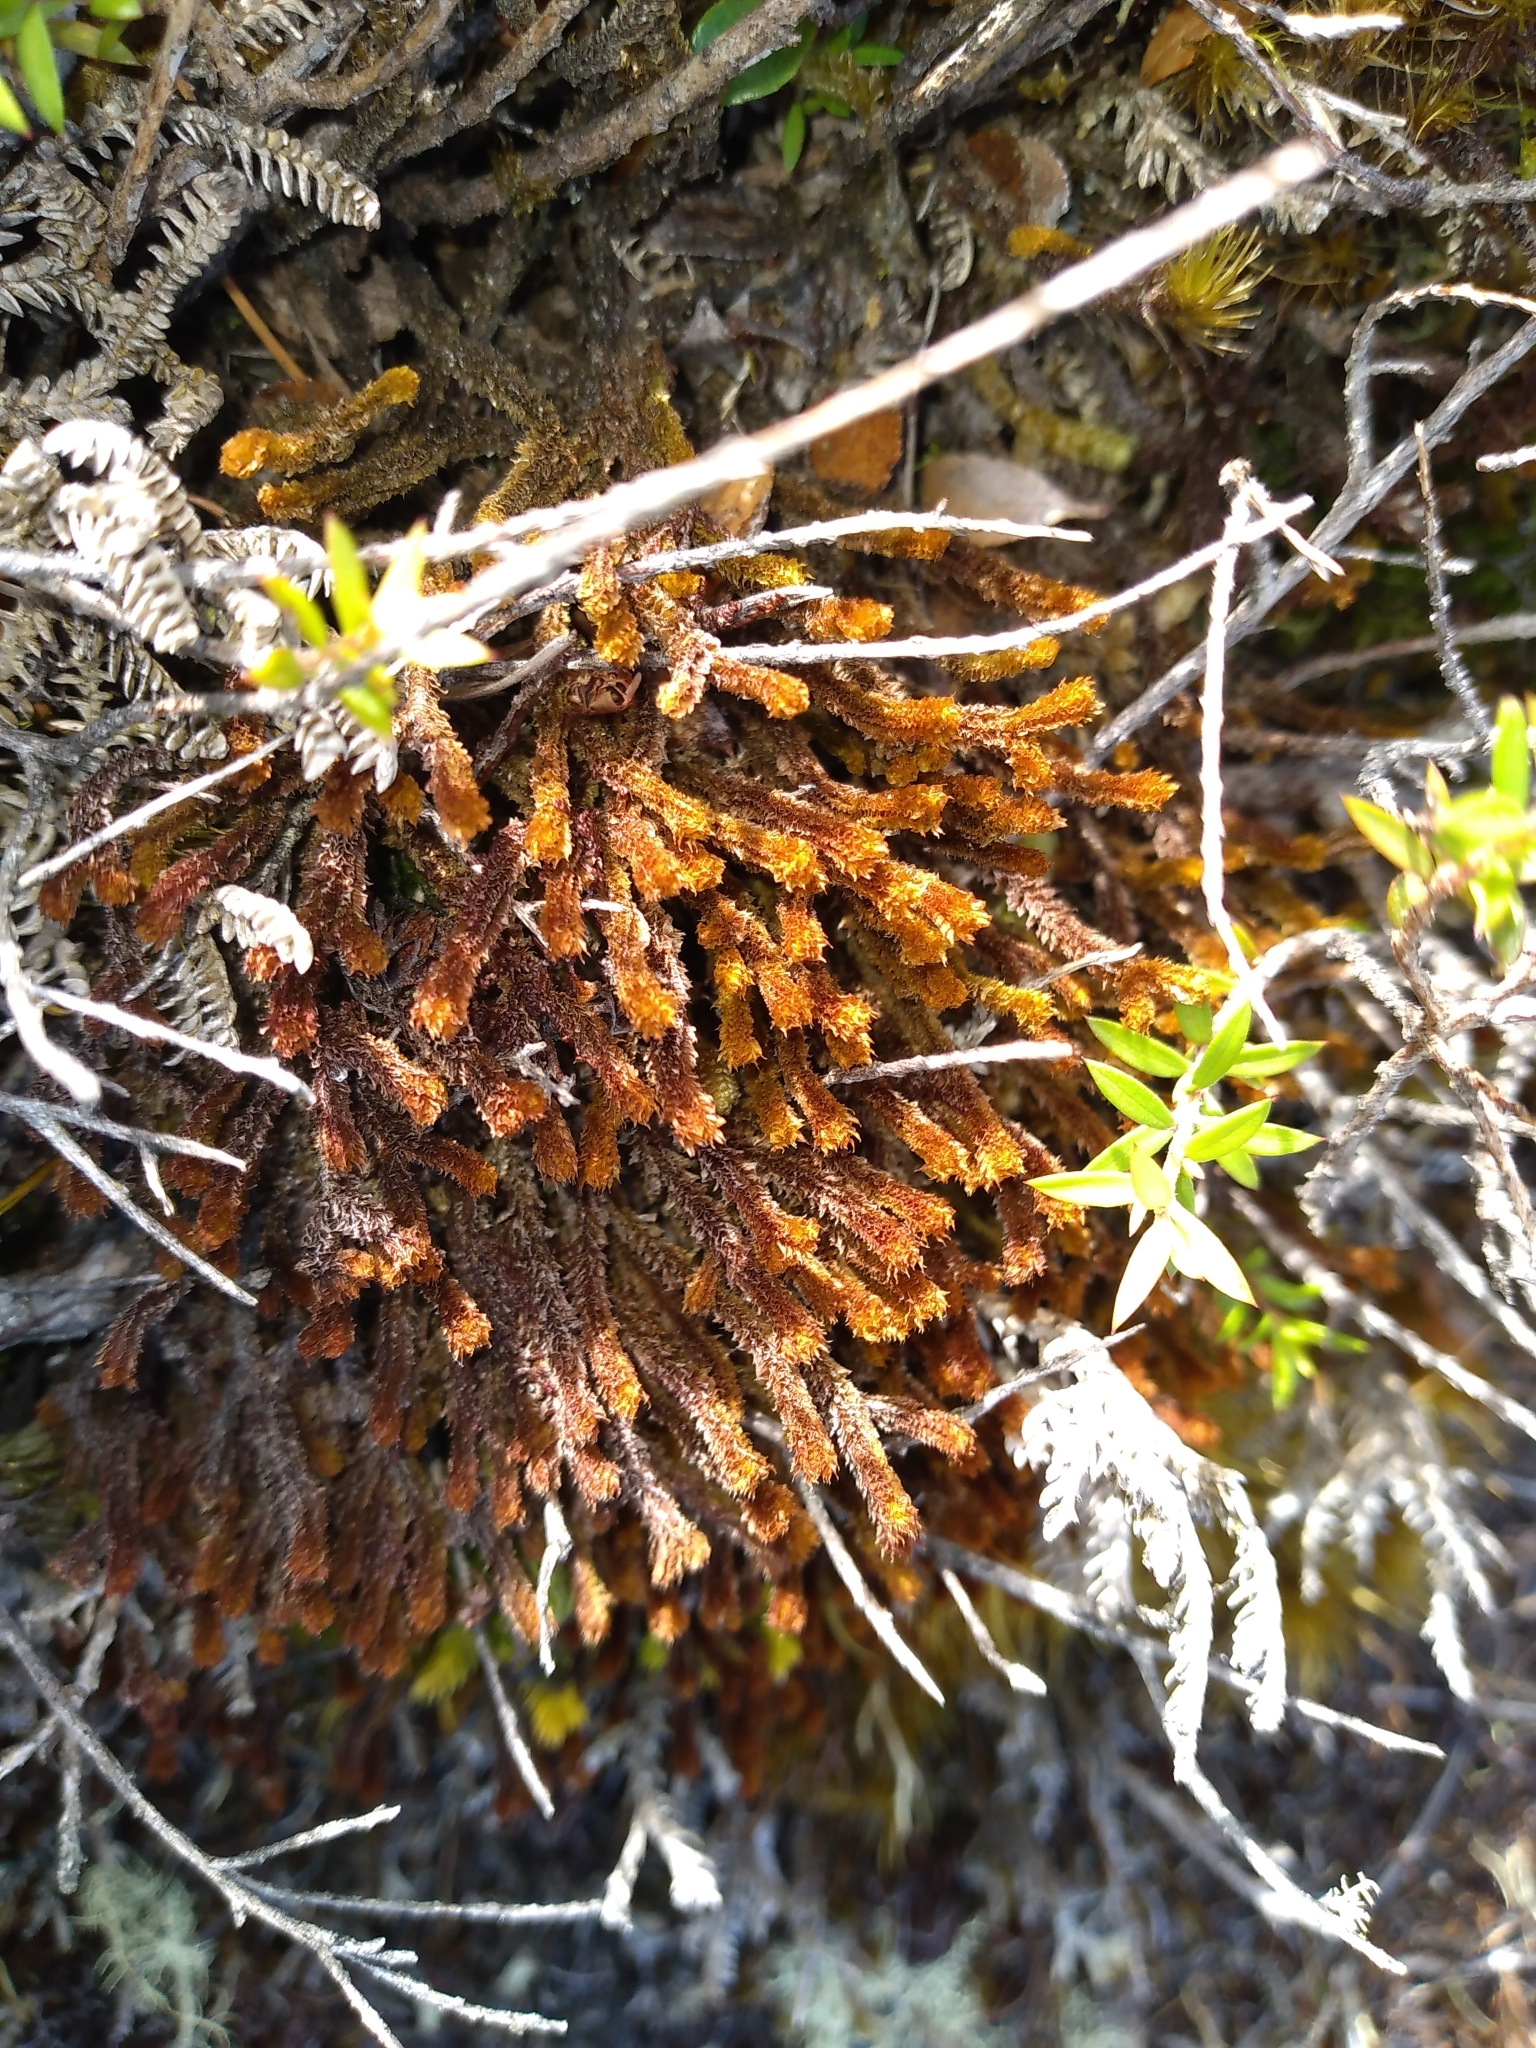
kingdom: Plantae
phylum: Marchantiophyta
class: Jungermanniopsida
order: Jungermanniales
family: Anastrophyllaceae
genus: Chandonanthus
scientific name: Chandonanthus squarrosus
